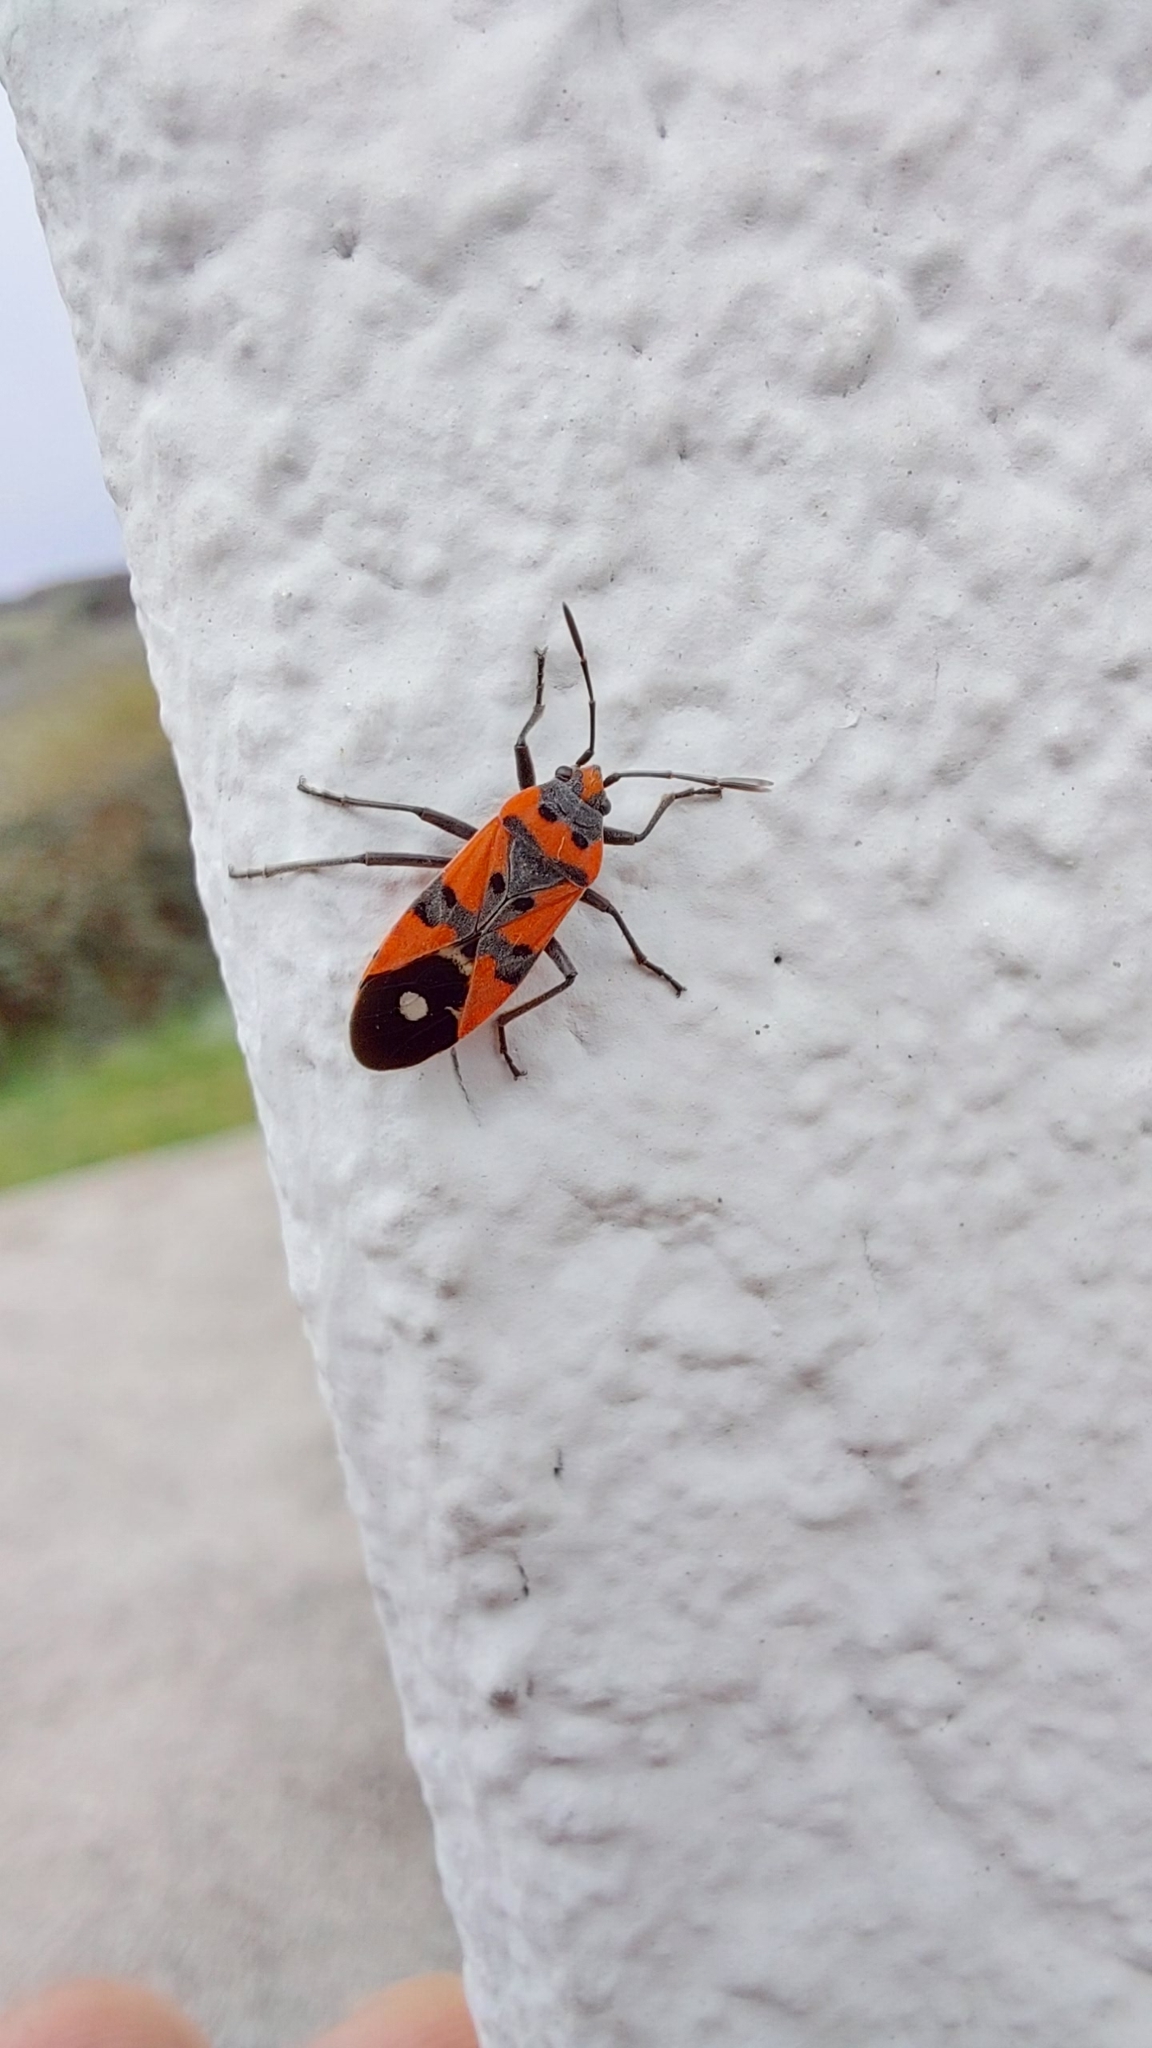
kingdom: Animalia
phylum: Arthropoda
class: Insecta
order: Hemiptera
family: Lygaeidae
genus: Lygaeus
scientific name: Lygaeus equestris
